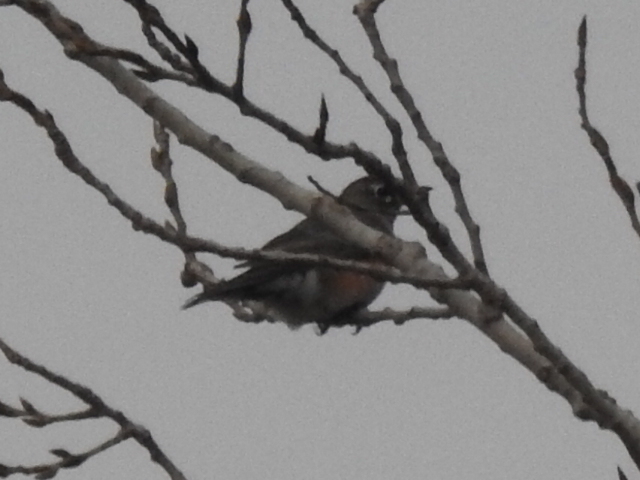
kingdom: Animalia
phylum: Chordata
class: Aves
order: Passeriformes
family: Turdidae
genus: Turdus
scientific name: Turdus migratorius
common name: American robin
